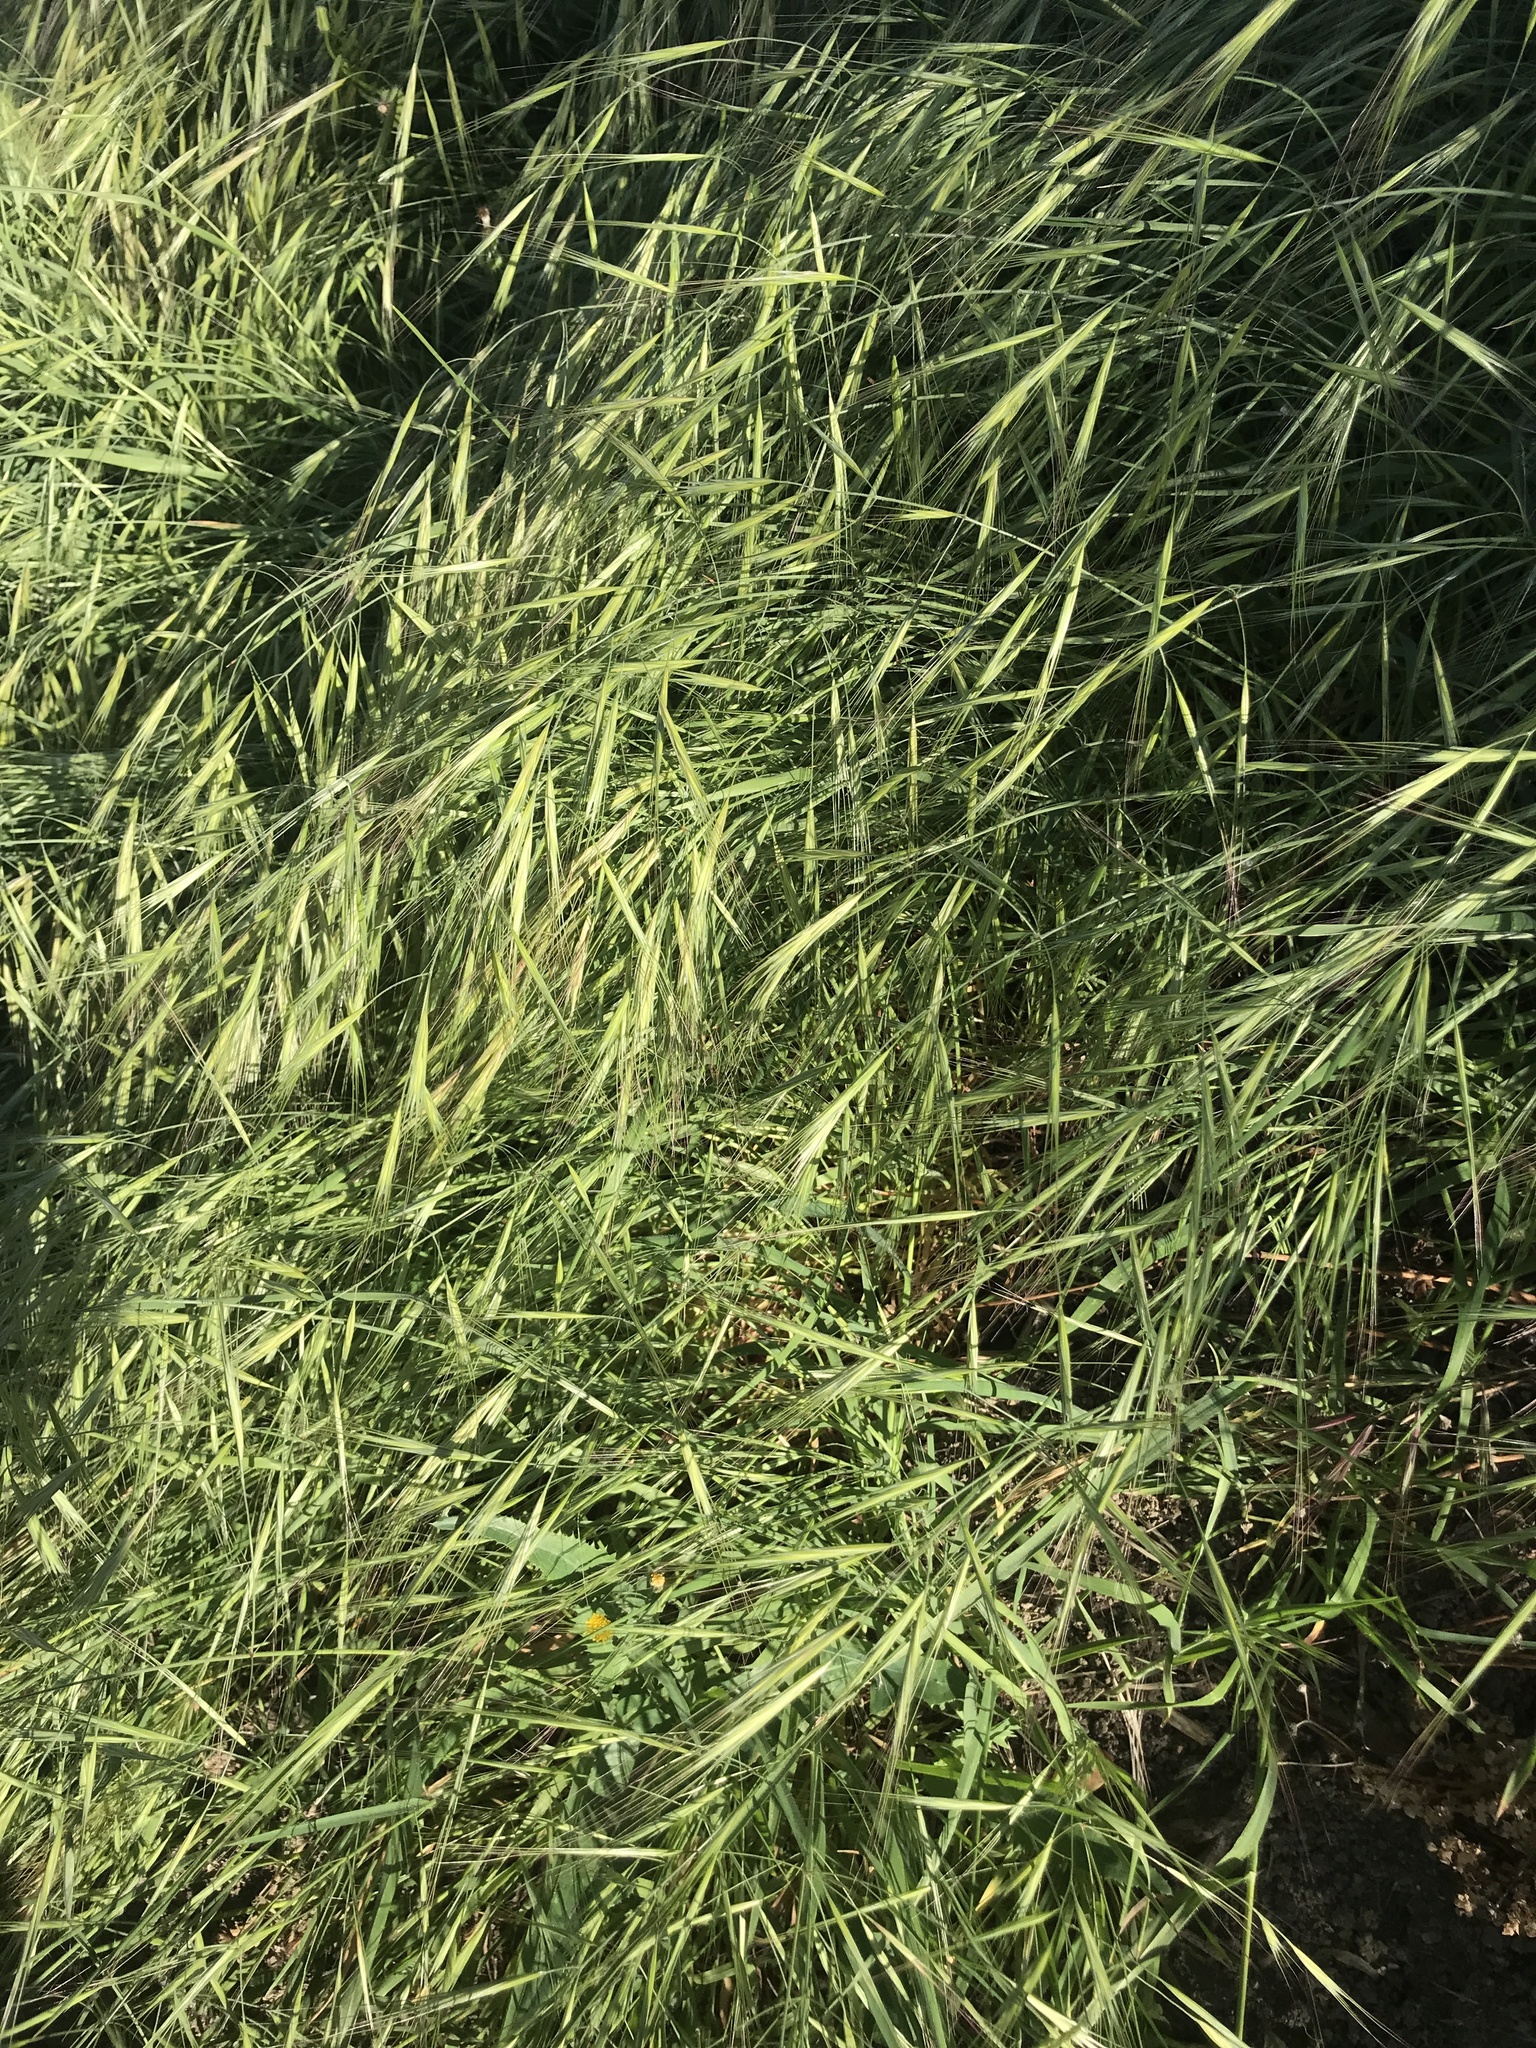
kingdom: Plantae
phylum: Tracheophyta
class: Liliopsida
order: Poales
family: Poaceae
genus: Bromus
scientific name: Bromus diandrus
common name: Ripgut brome
